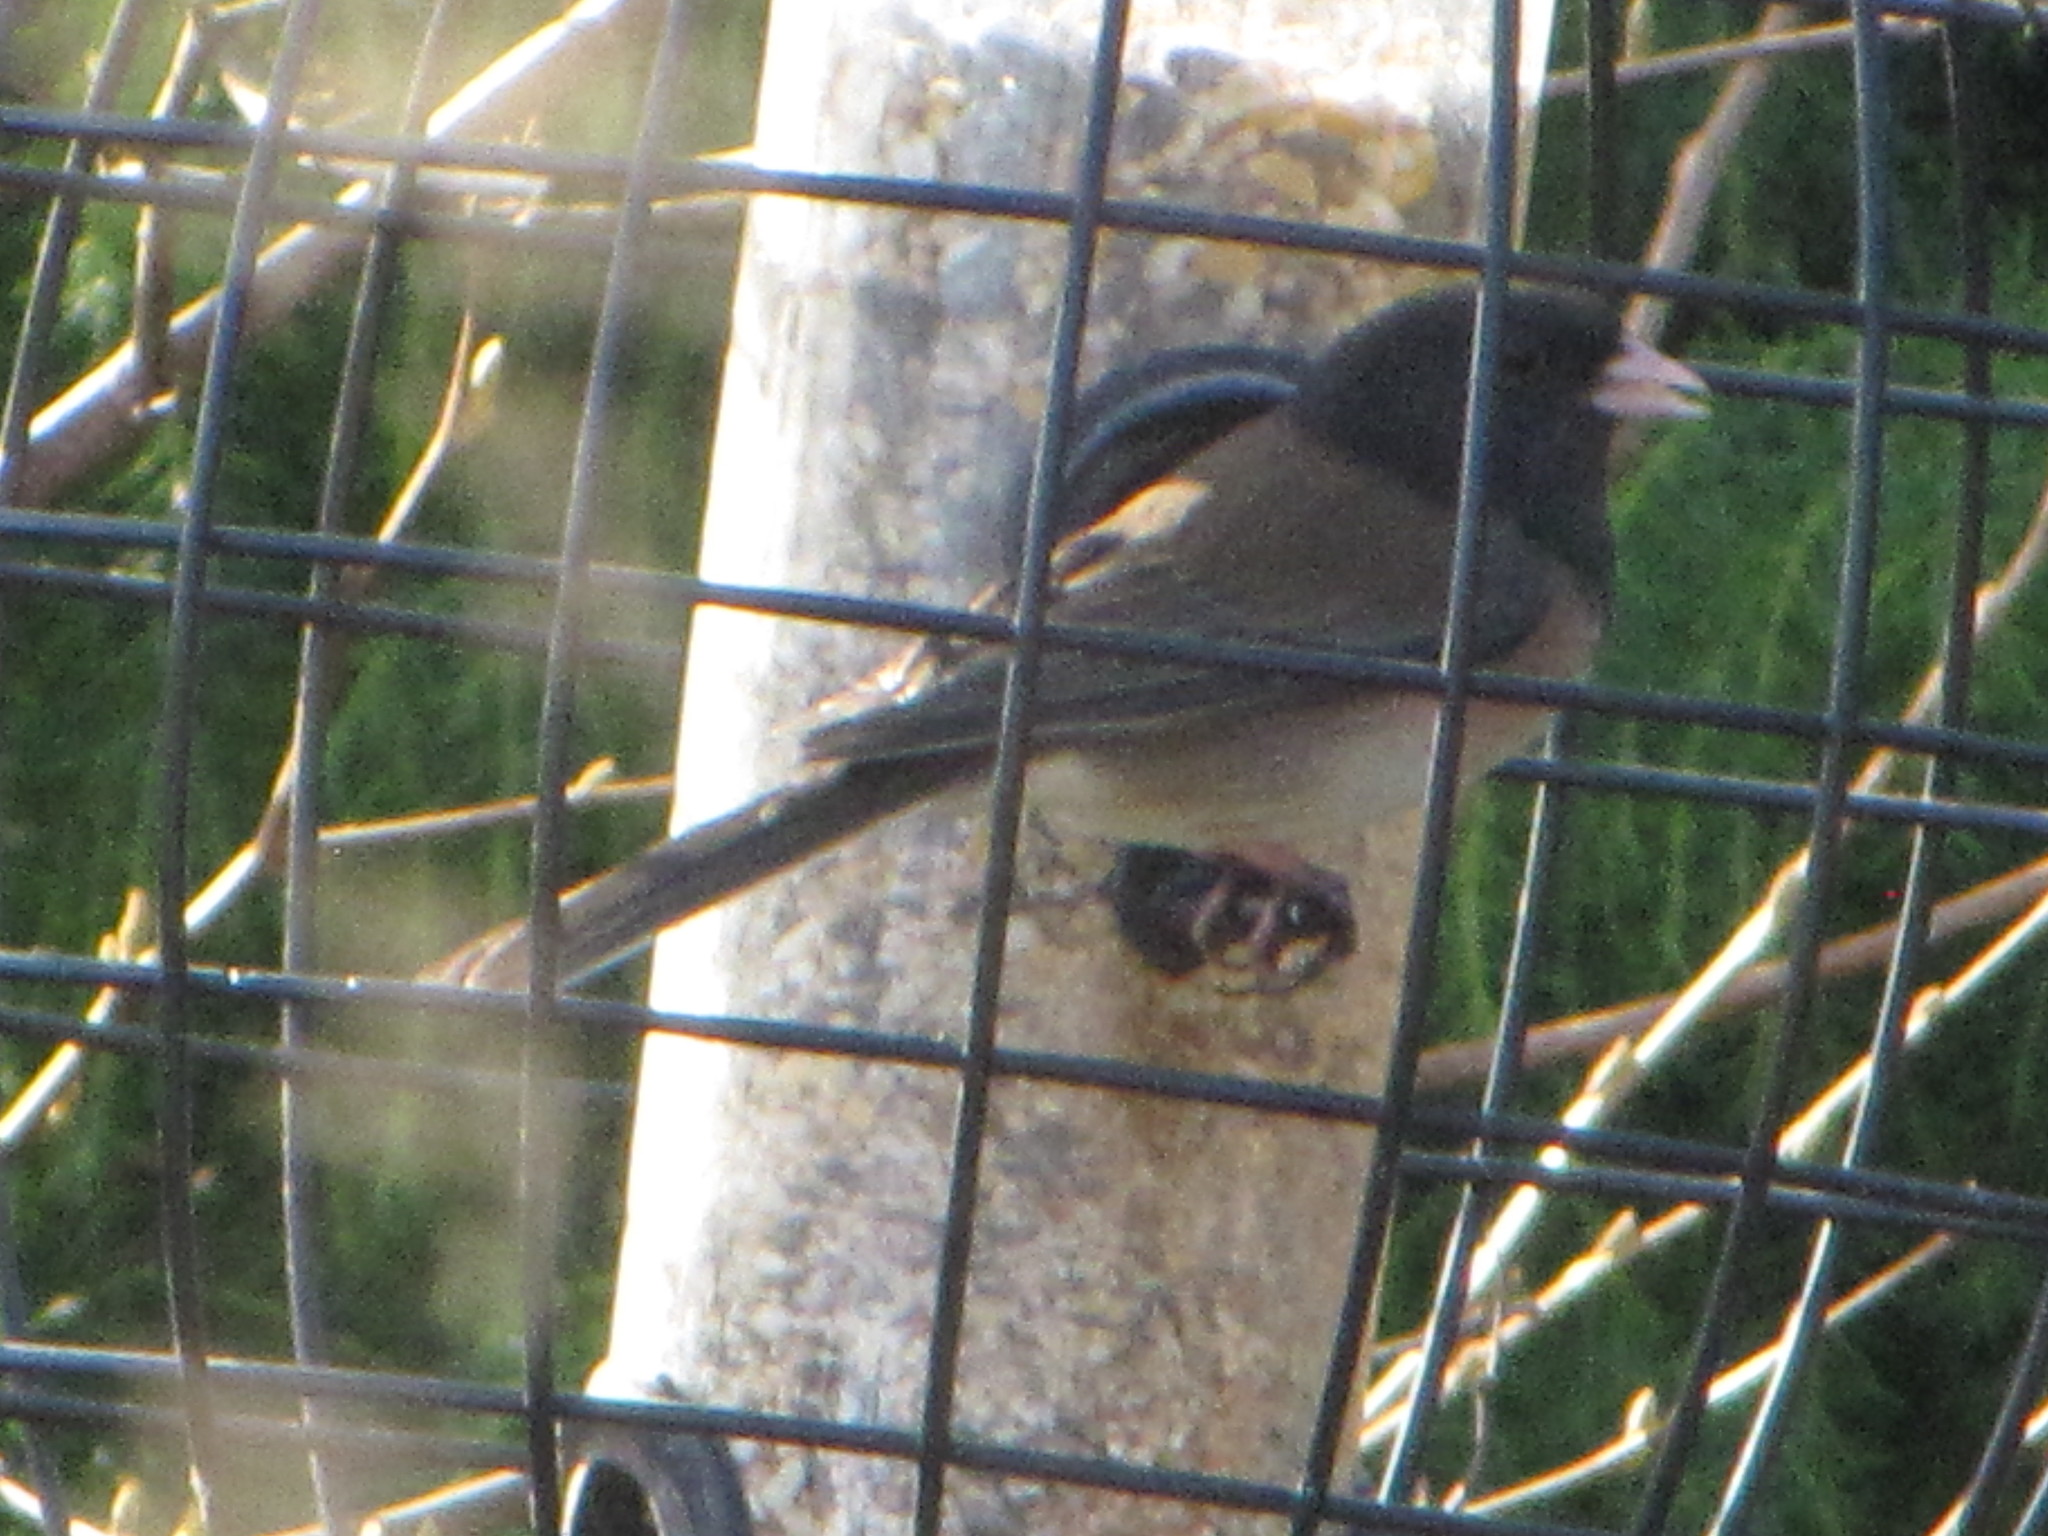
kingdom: Animalia
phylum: Chordata
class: Aves
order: Passeriformes
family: Passerellidae
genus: Junco
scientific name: Junco hyemalis
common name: Dark-eyed junco
